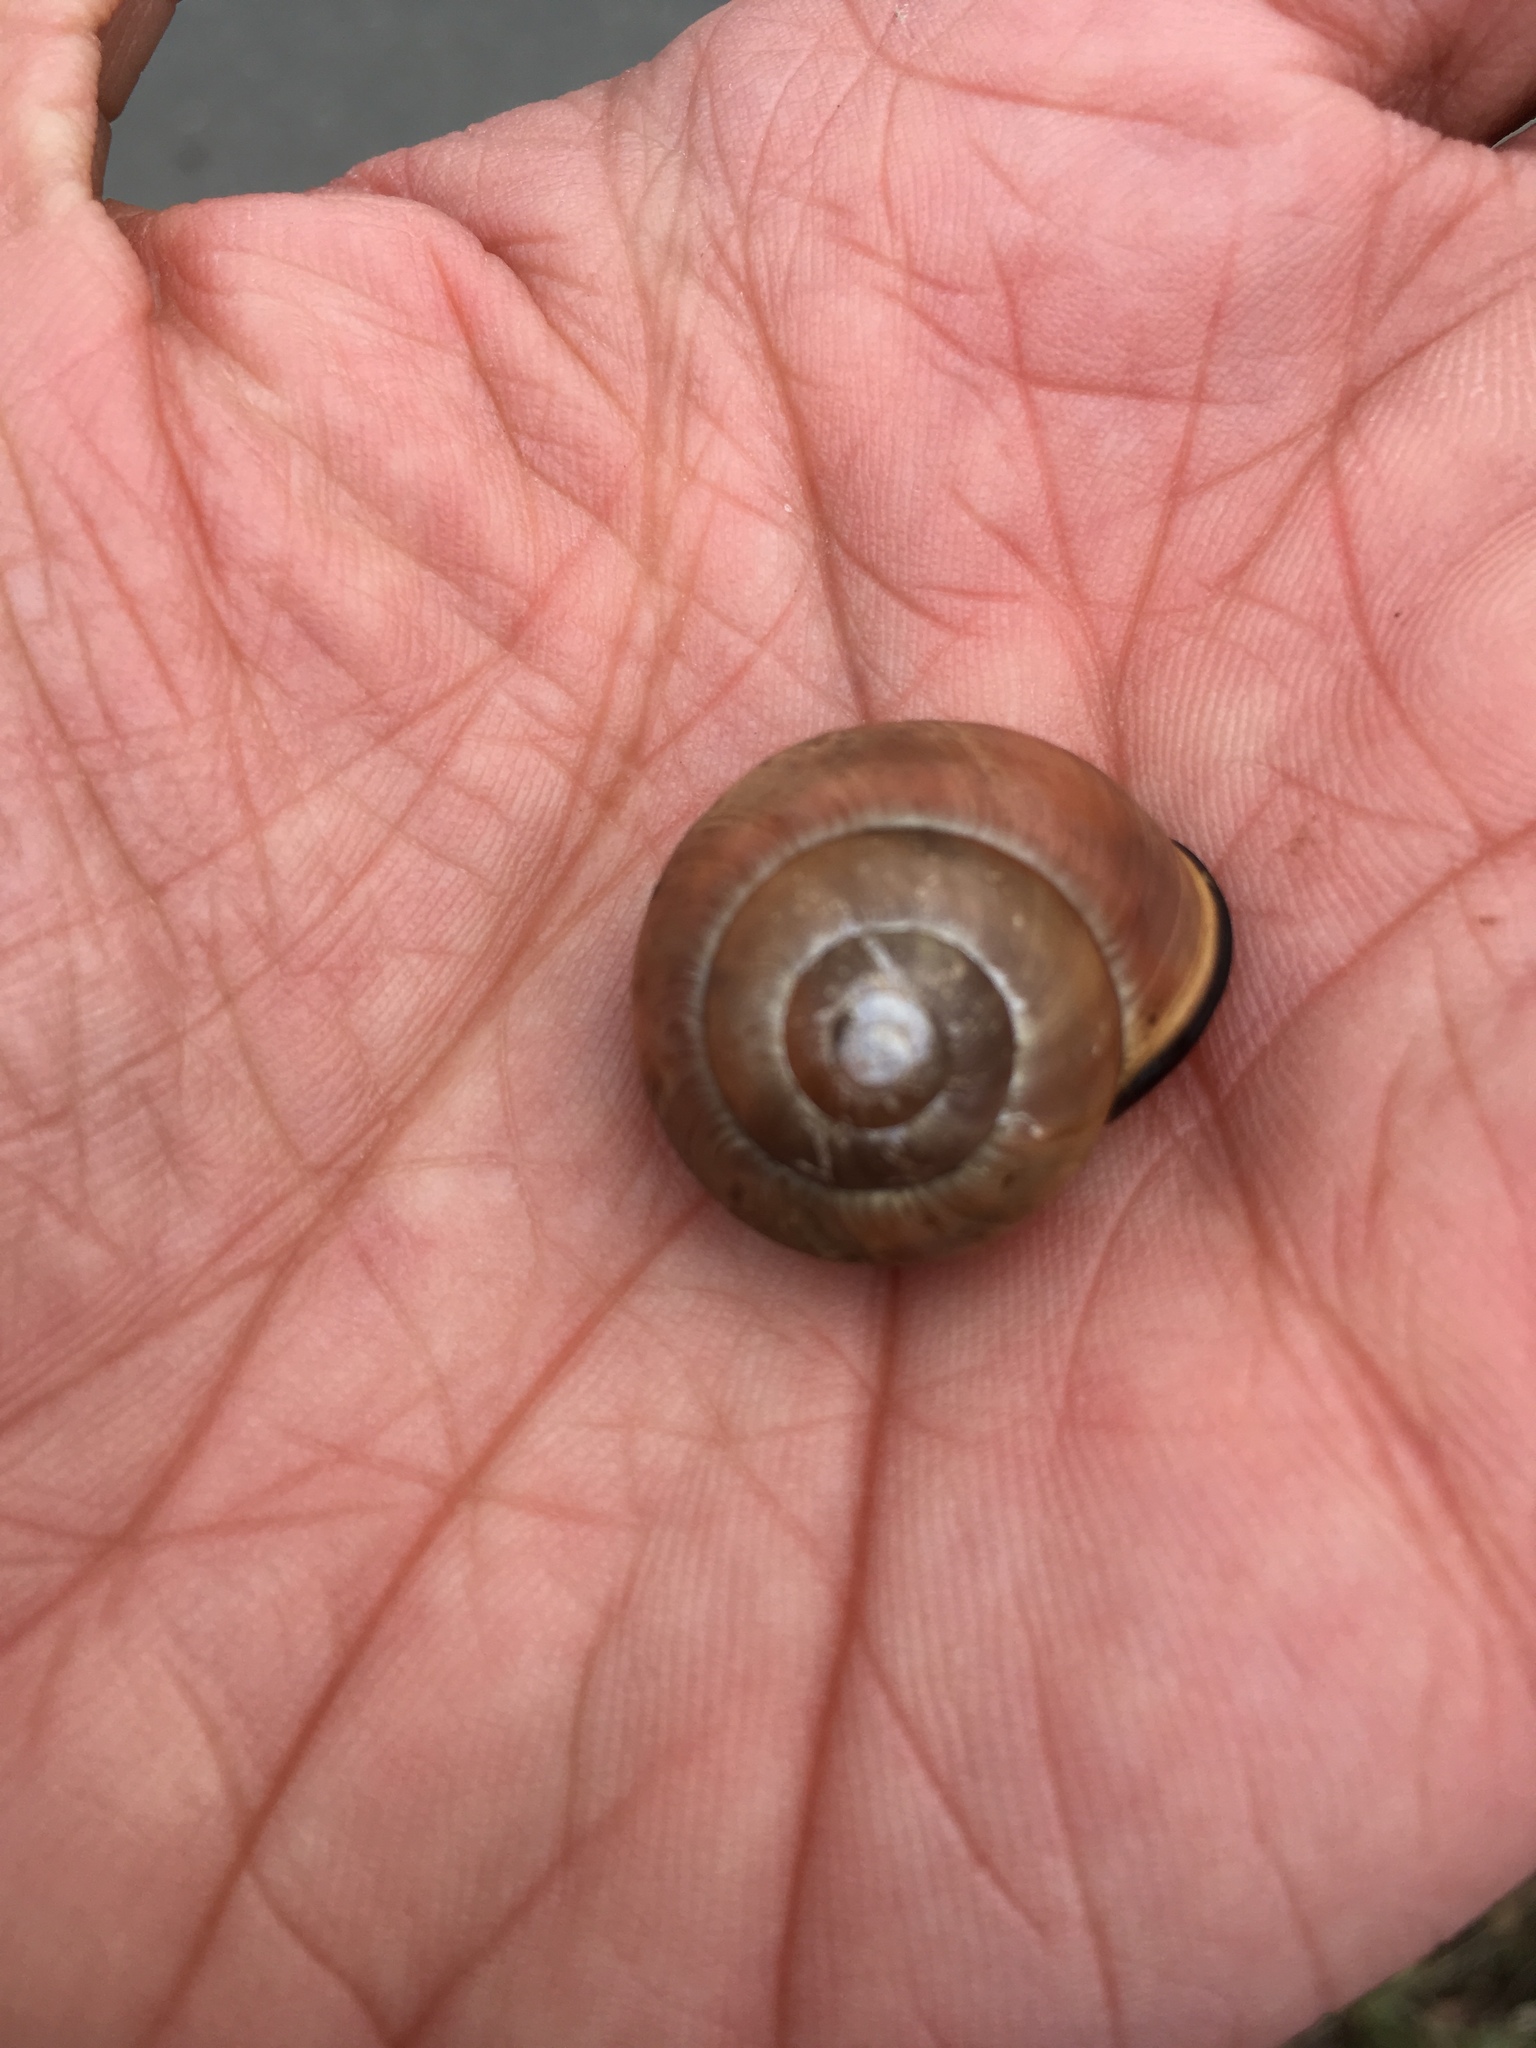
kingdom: Animalia
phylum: Mollusca
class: Gastropoda
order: Stylommatophora
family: Helicidae
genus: Cepaea
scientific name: Cepaea nemoralis
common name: Grovesnail
